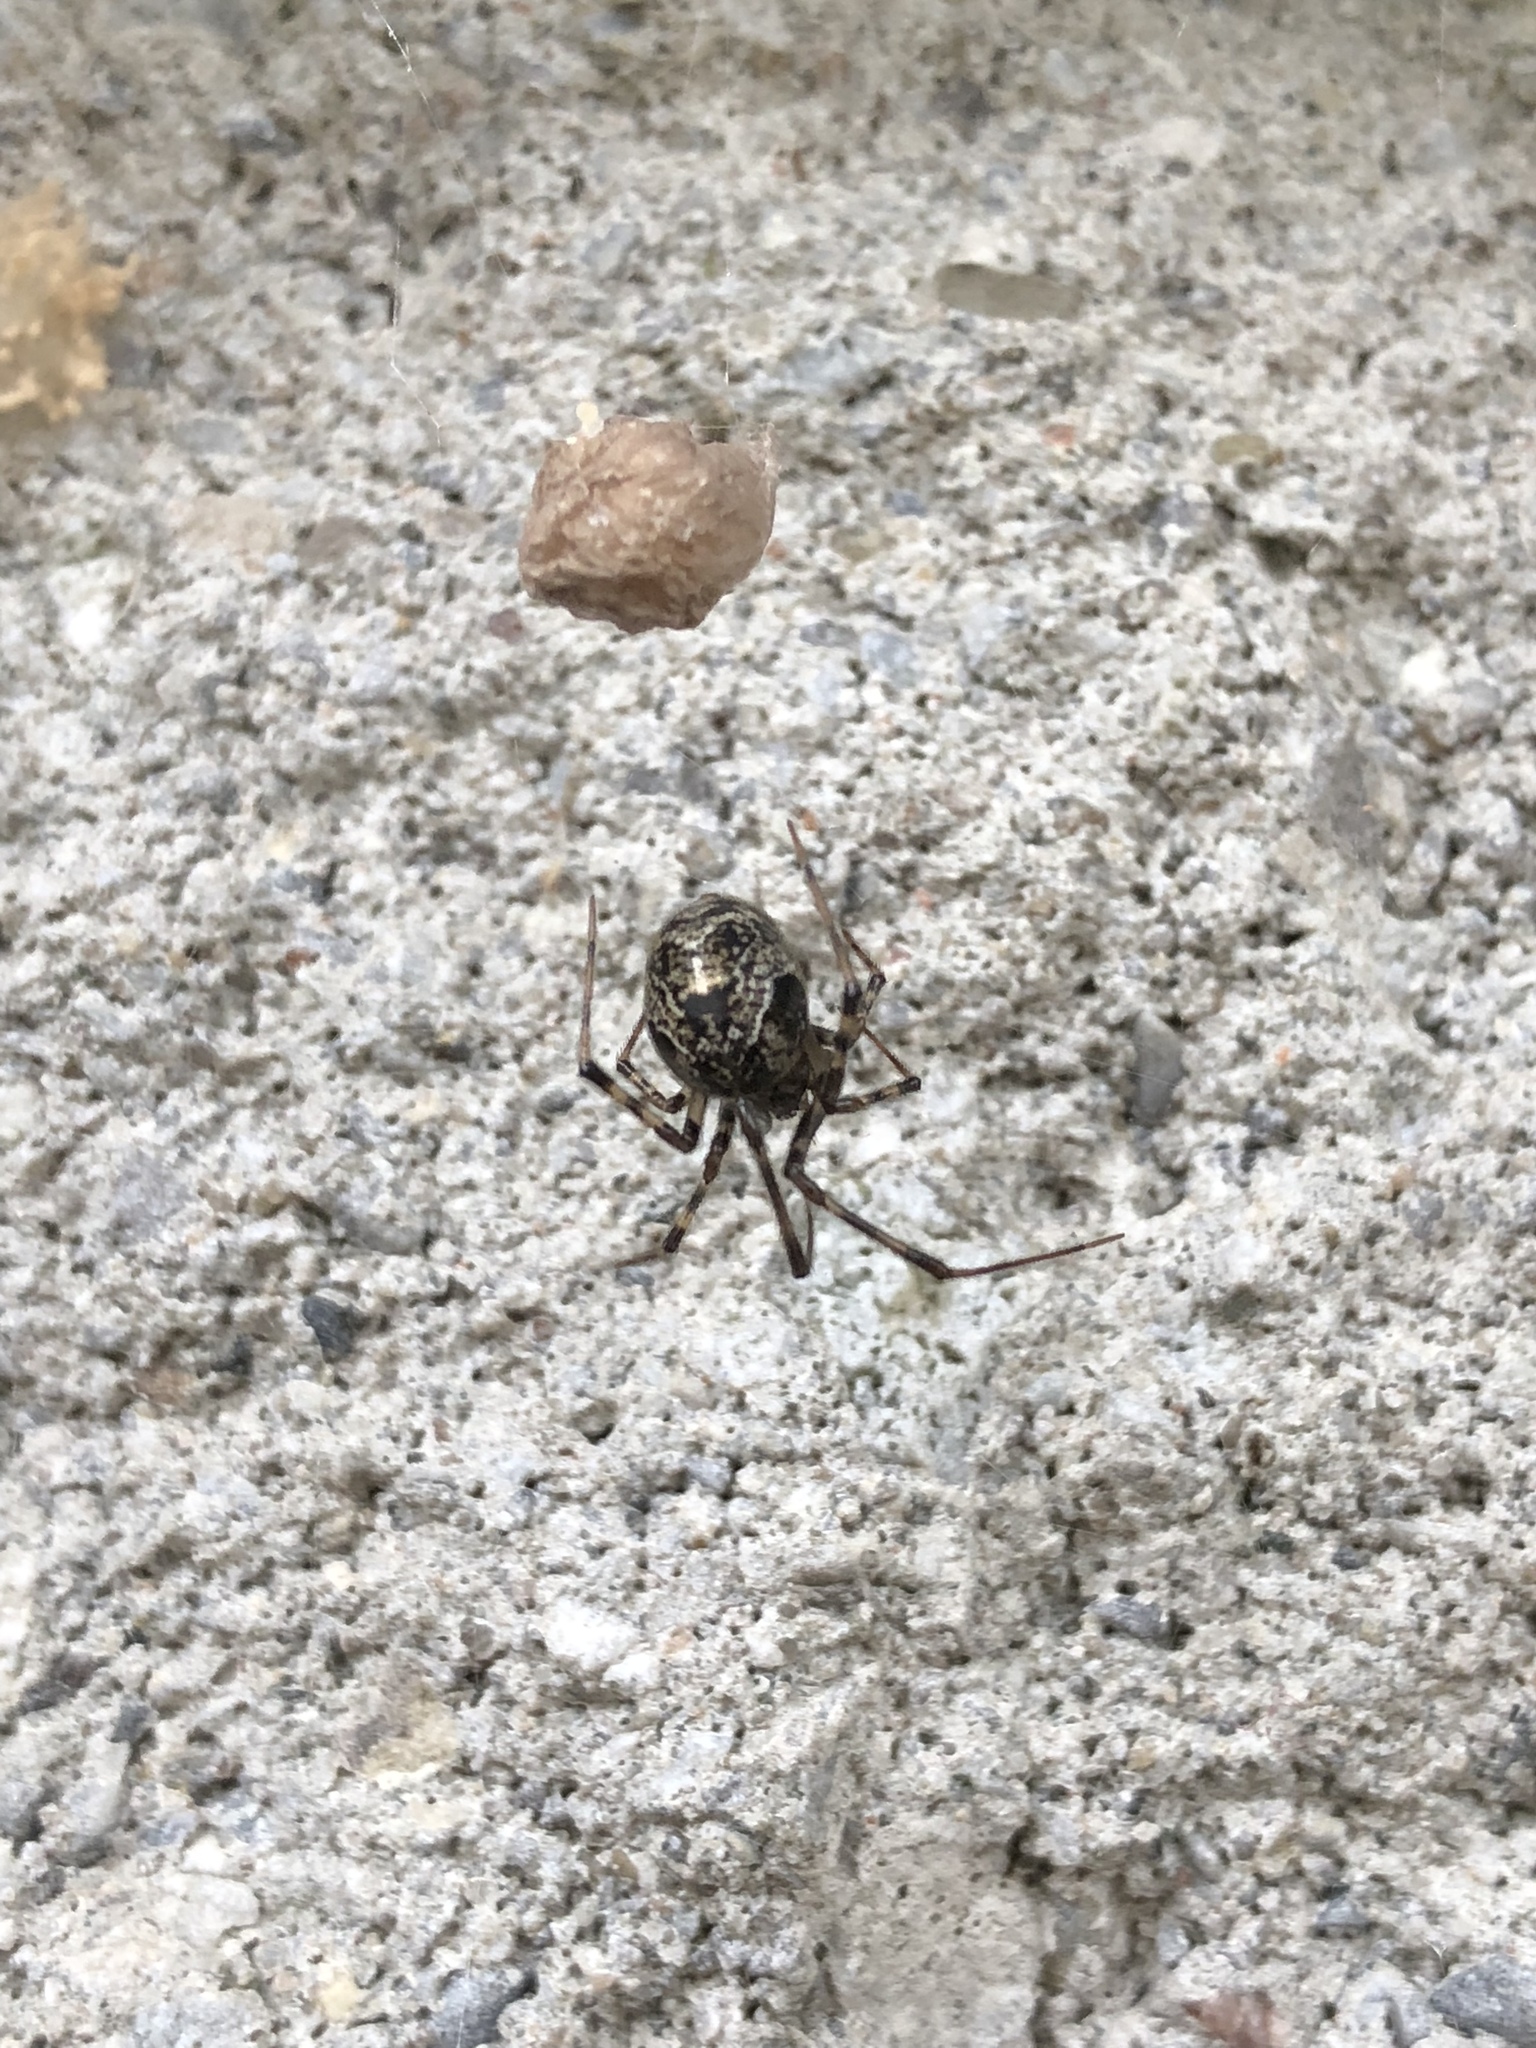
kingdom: Animalia
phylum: Arthropoda
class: Arachnida
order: Araneae
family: Theridiidae
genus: Parasteatoda
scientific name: Parasteatoda tepidariorum
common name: Common house spider
